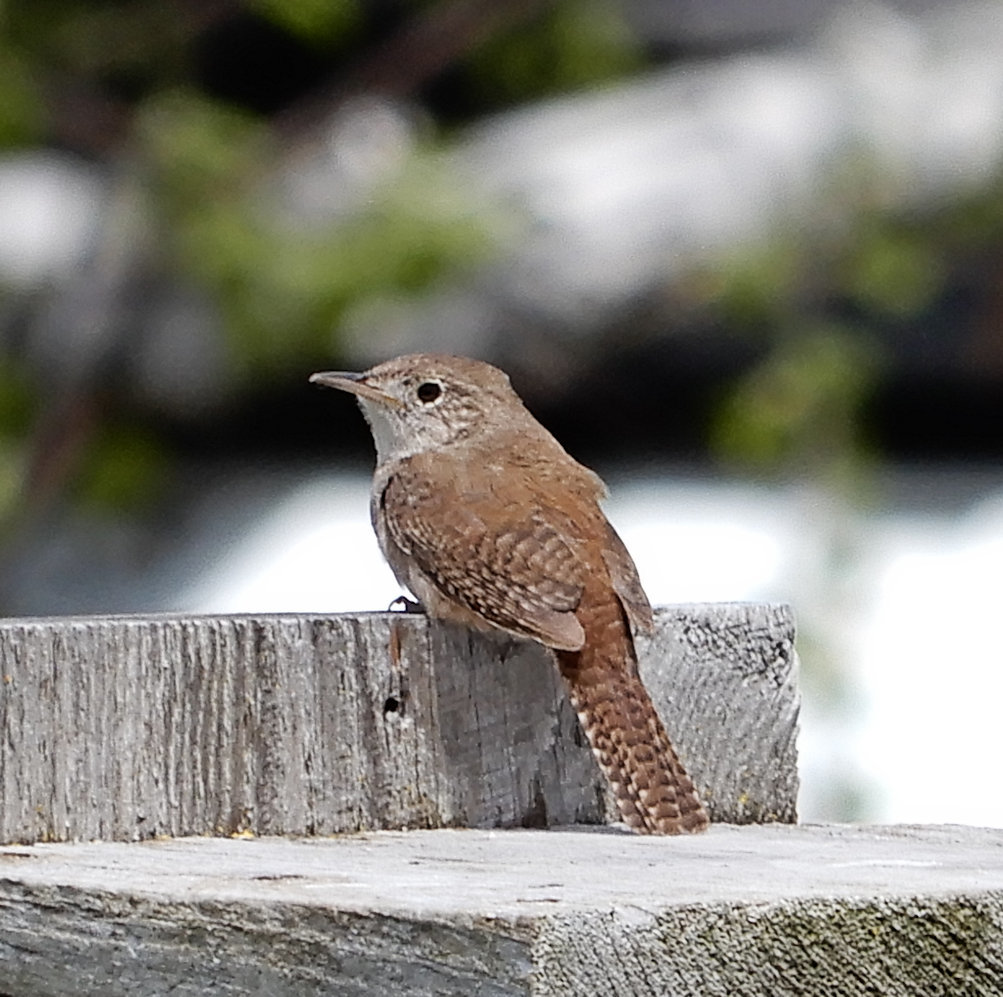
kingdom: Animalia
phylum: Chordata
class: Aves
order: Passeriformes
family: Troglodytidae
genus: Troglodytes
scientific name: Troglodytes aedon
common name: House wren
